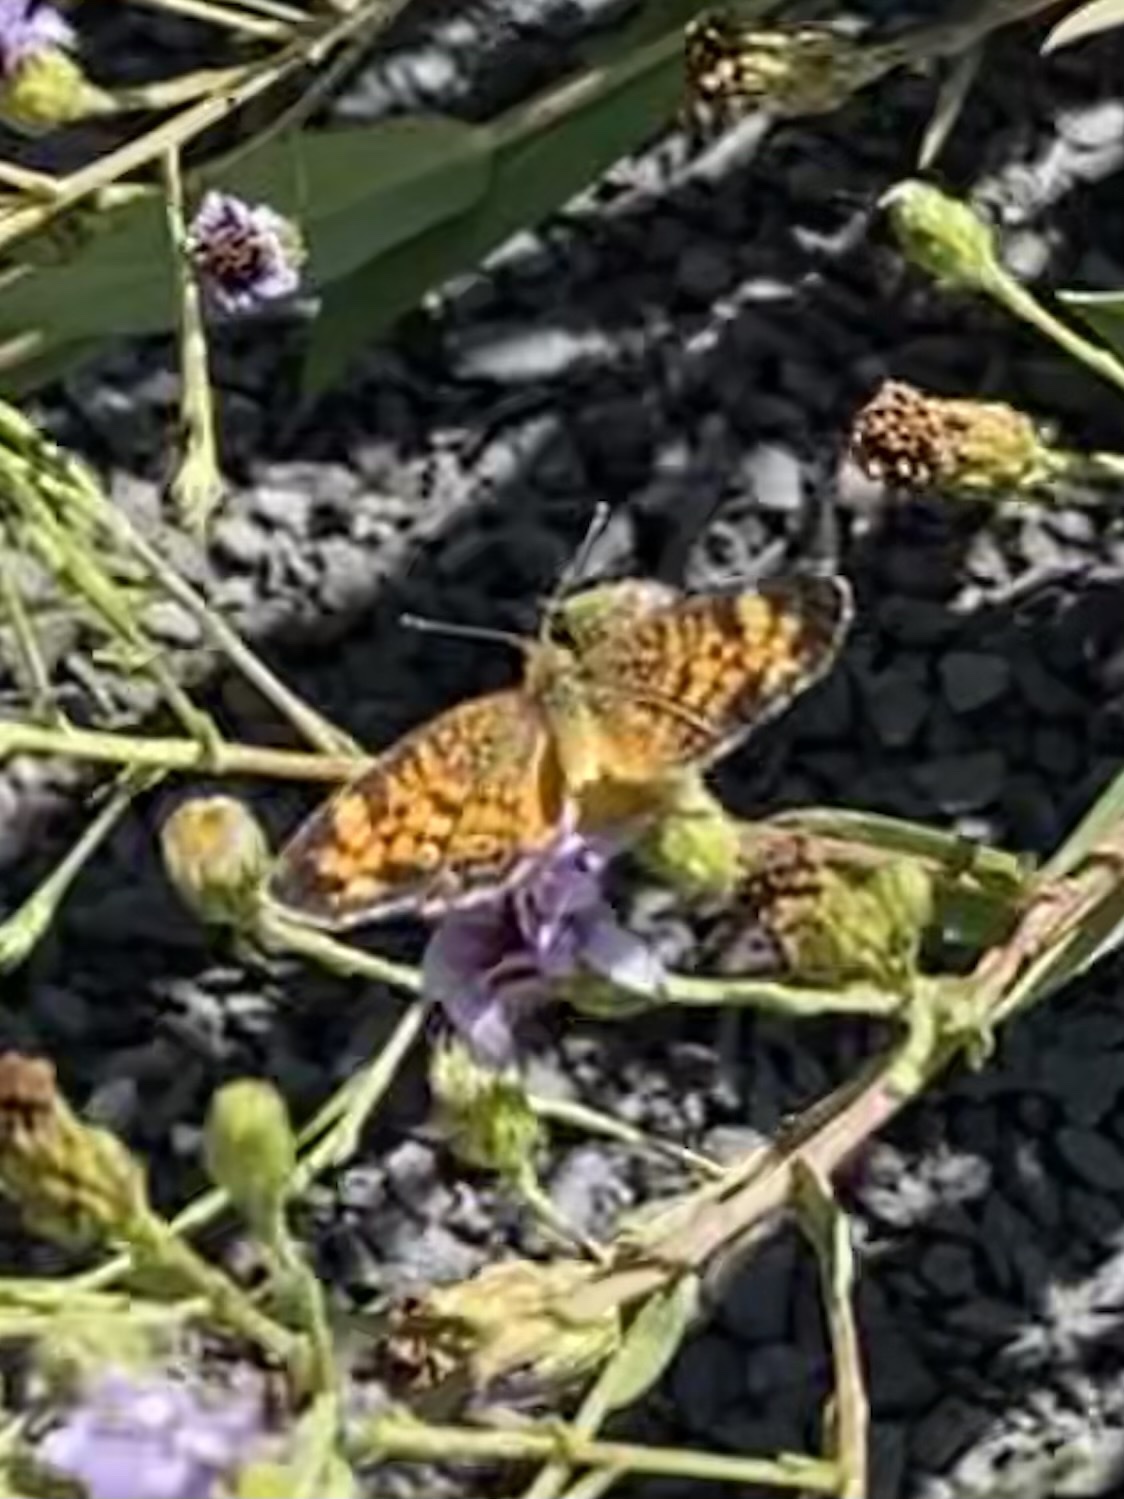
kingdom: Animalia
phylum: Arthropoda
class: Insecta
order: Lepidoptera
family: Nymphalidae
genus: Phyciodes
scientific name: Phyciodes tharos
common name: Pearl crescent
